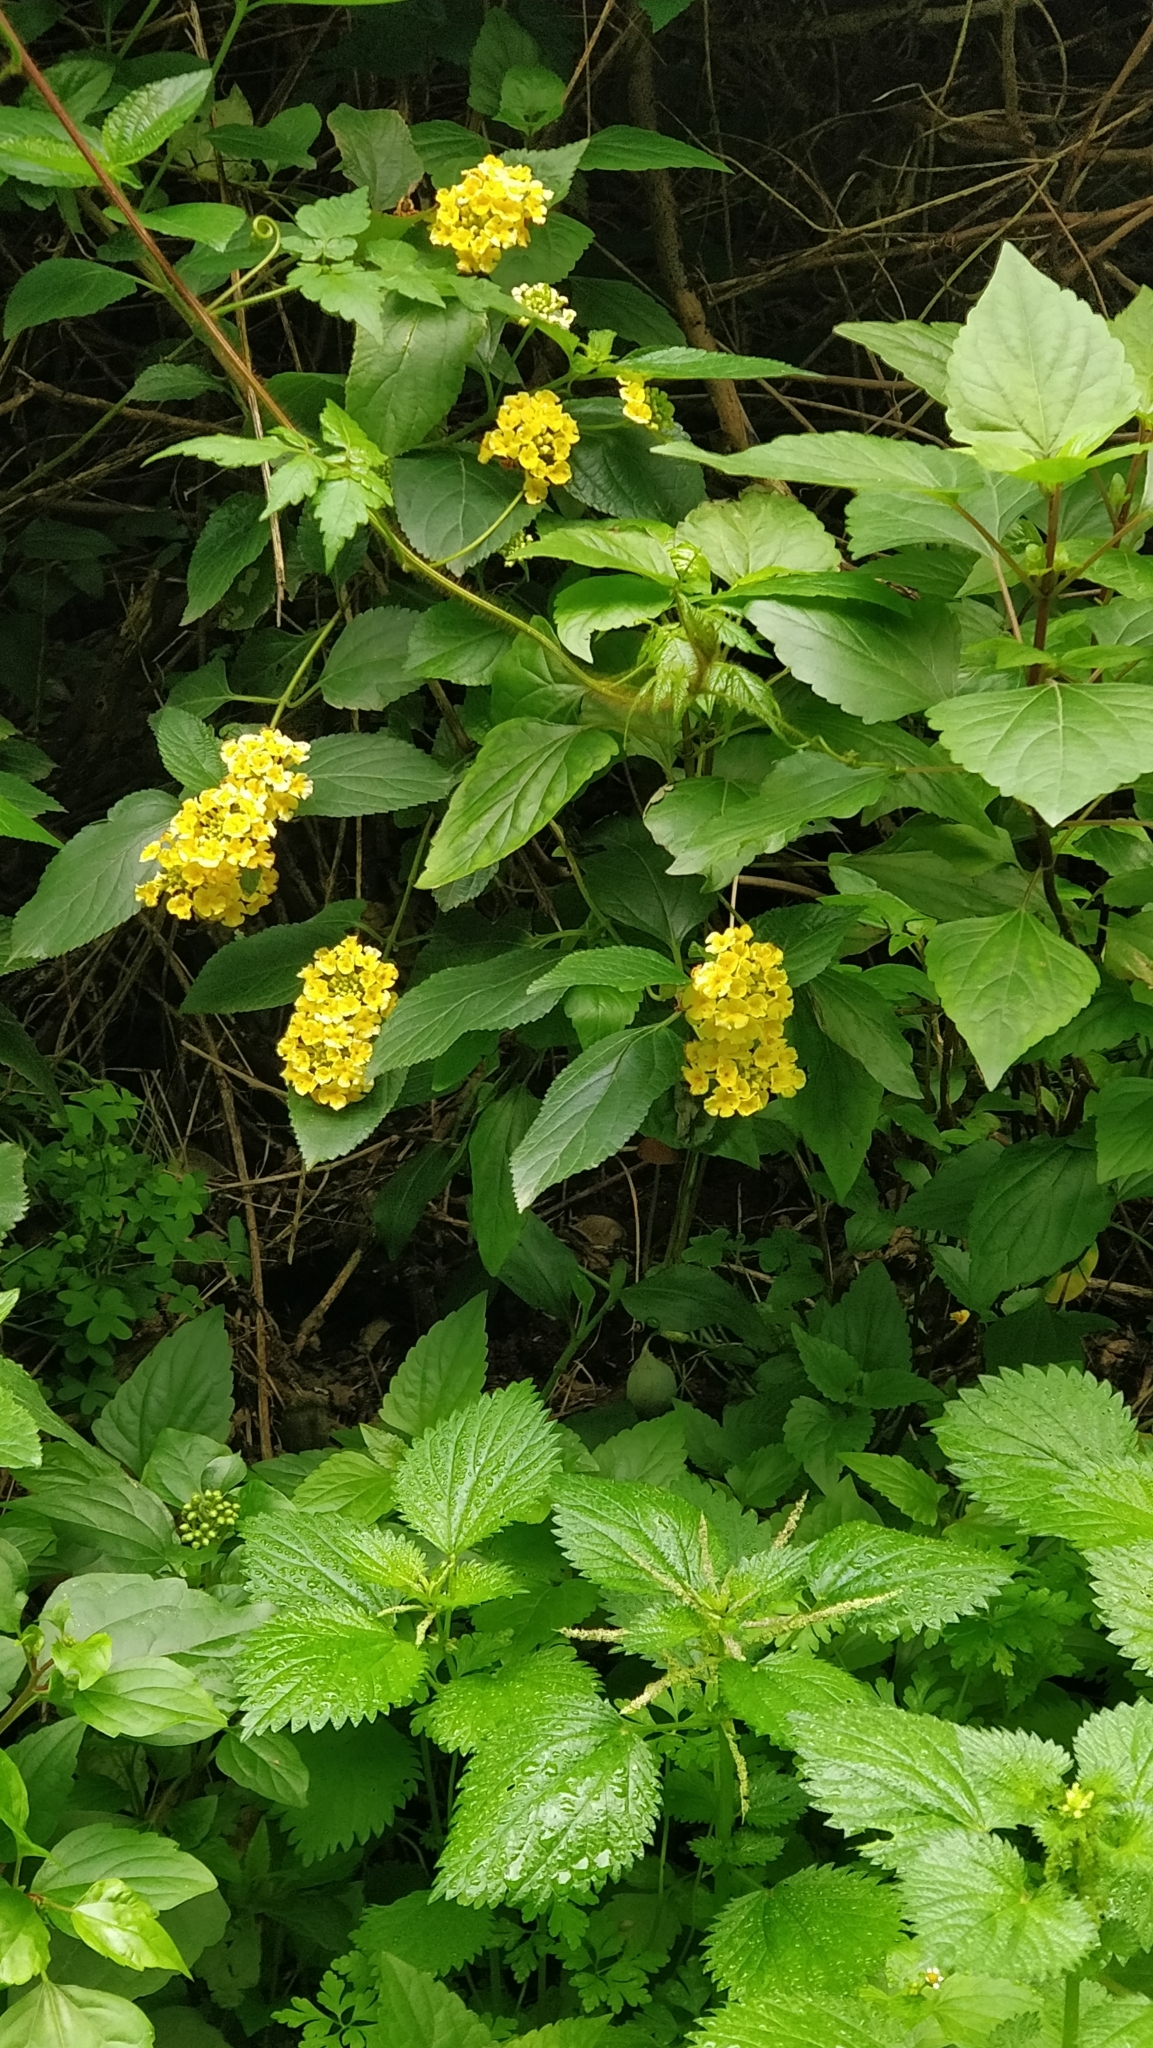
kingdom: Plantae
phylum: Tracheophyta
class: Magnoliopsida
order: Lamiales
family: Verbenaceae
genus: Lantana
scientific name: Lantana camara
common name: Lantana
